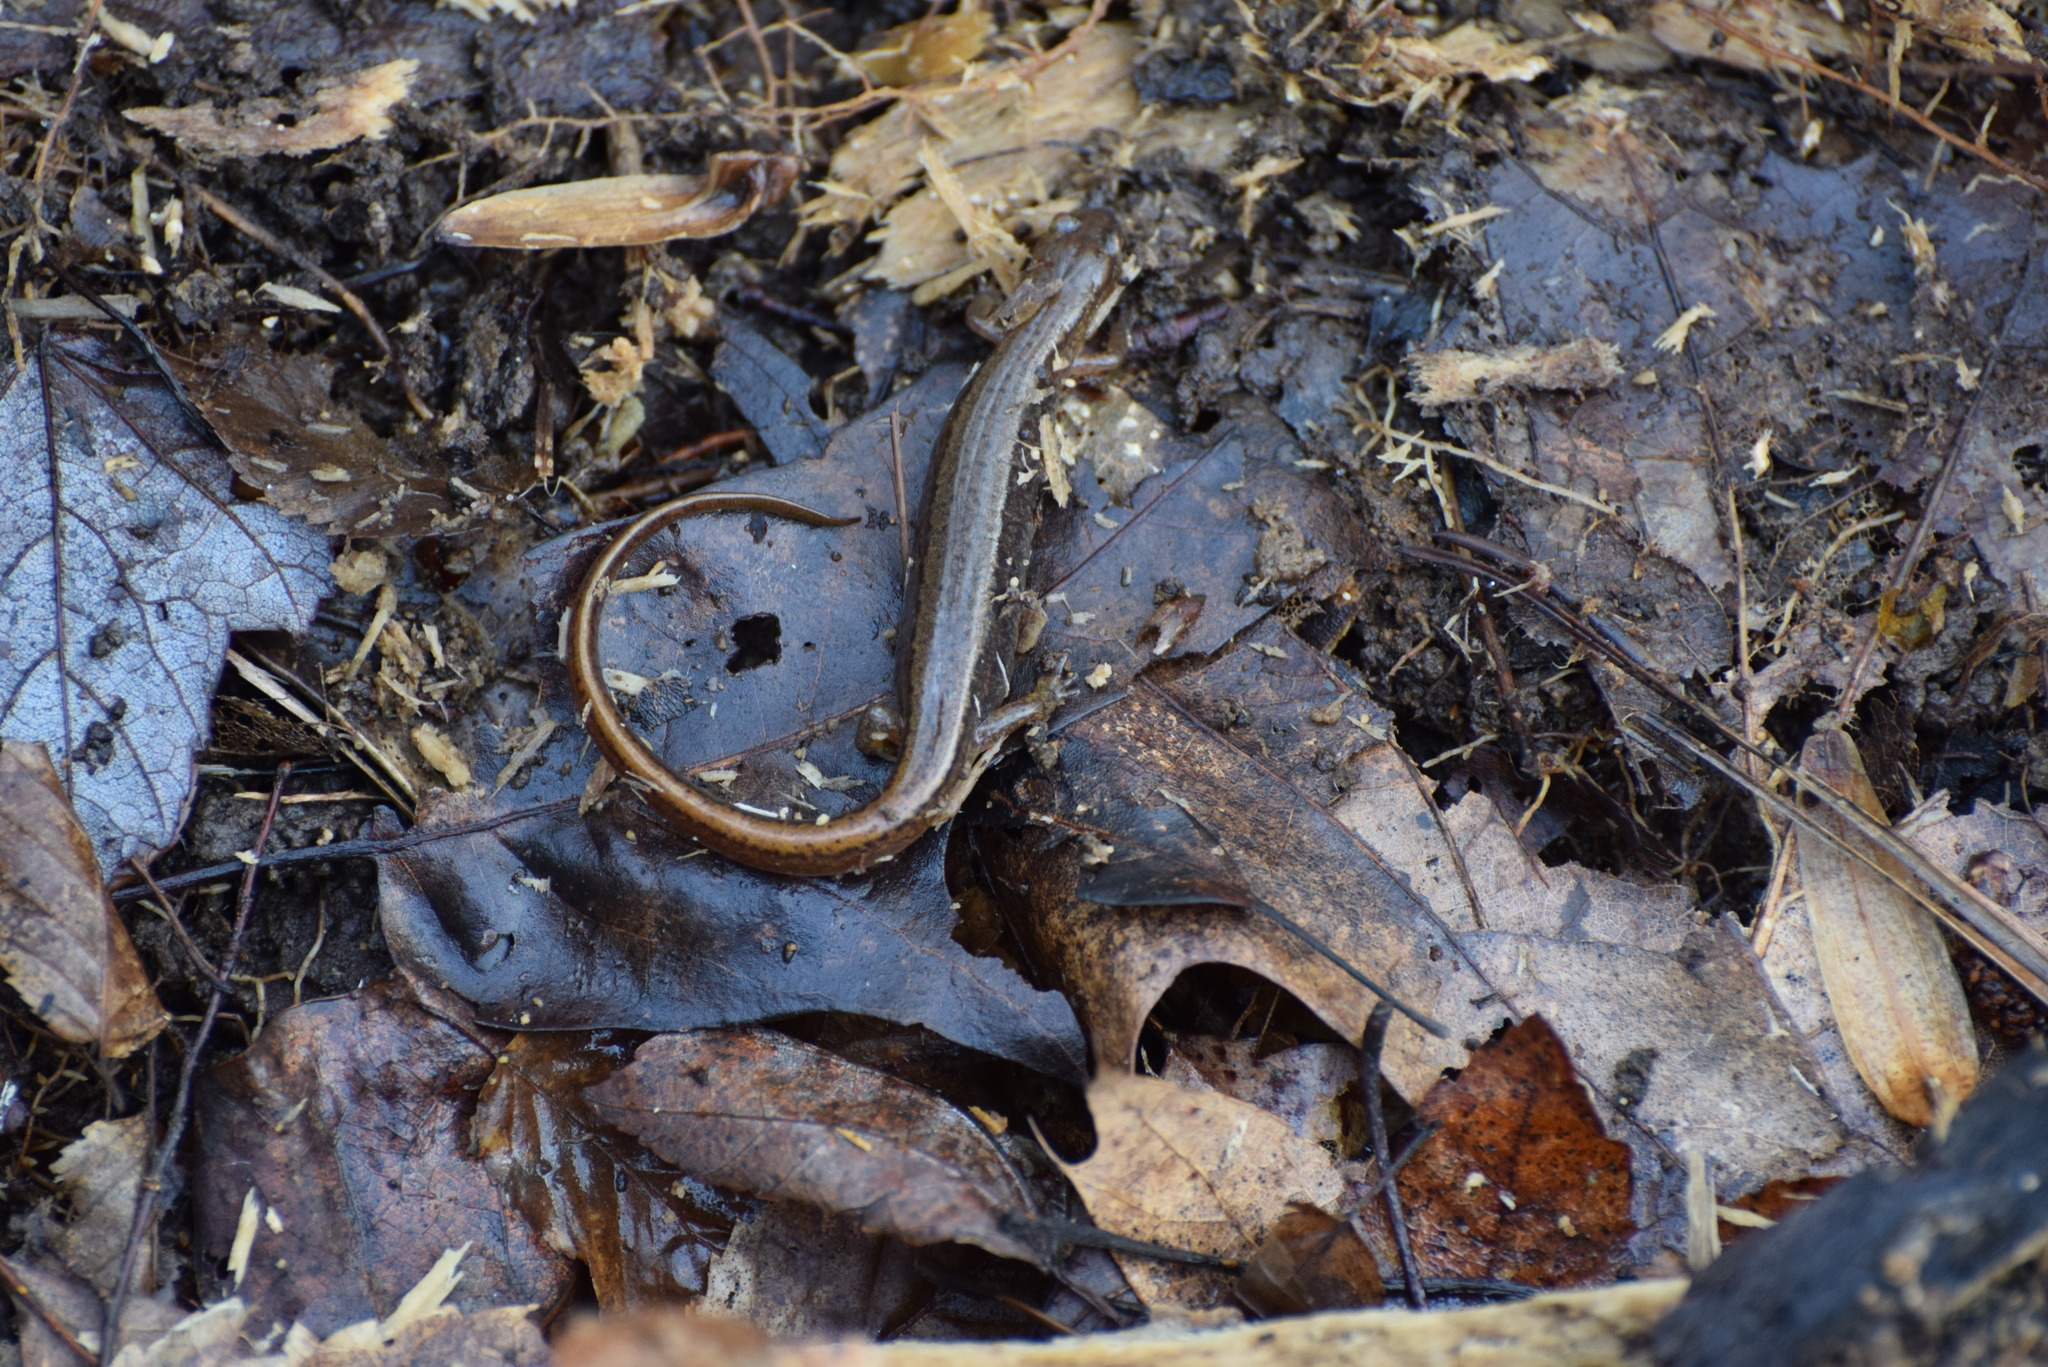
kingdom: Animalia
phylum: Chordata
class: Amphibia
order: Caudata
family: Plethodontidae
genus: Eurycea
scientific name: Eurycea bislineata
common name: Northern two-lined salamander
